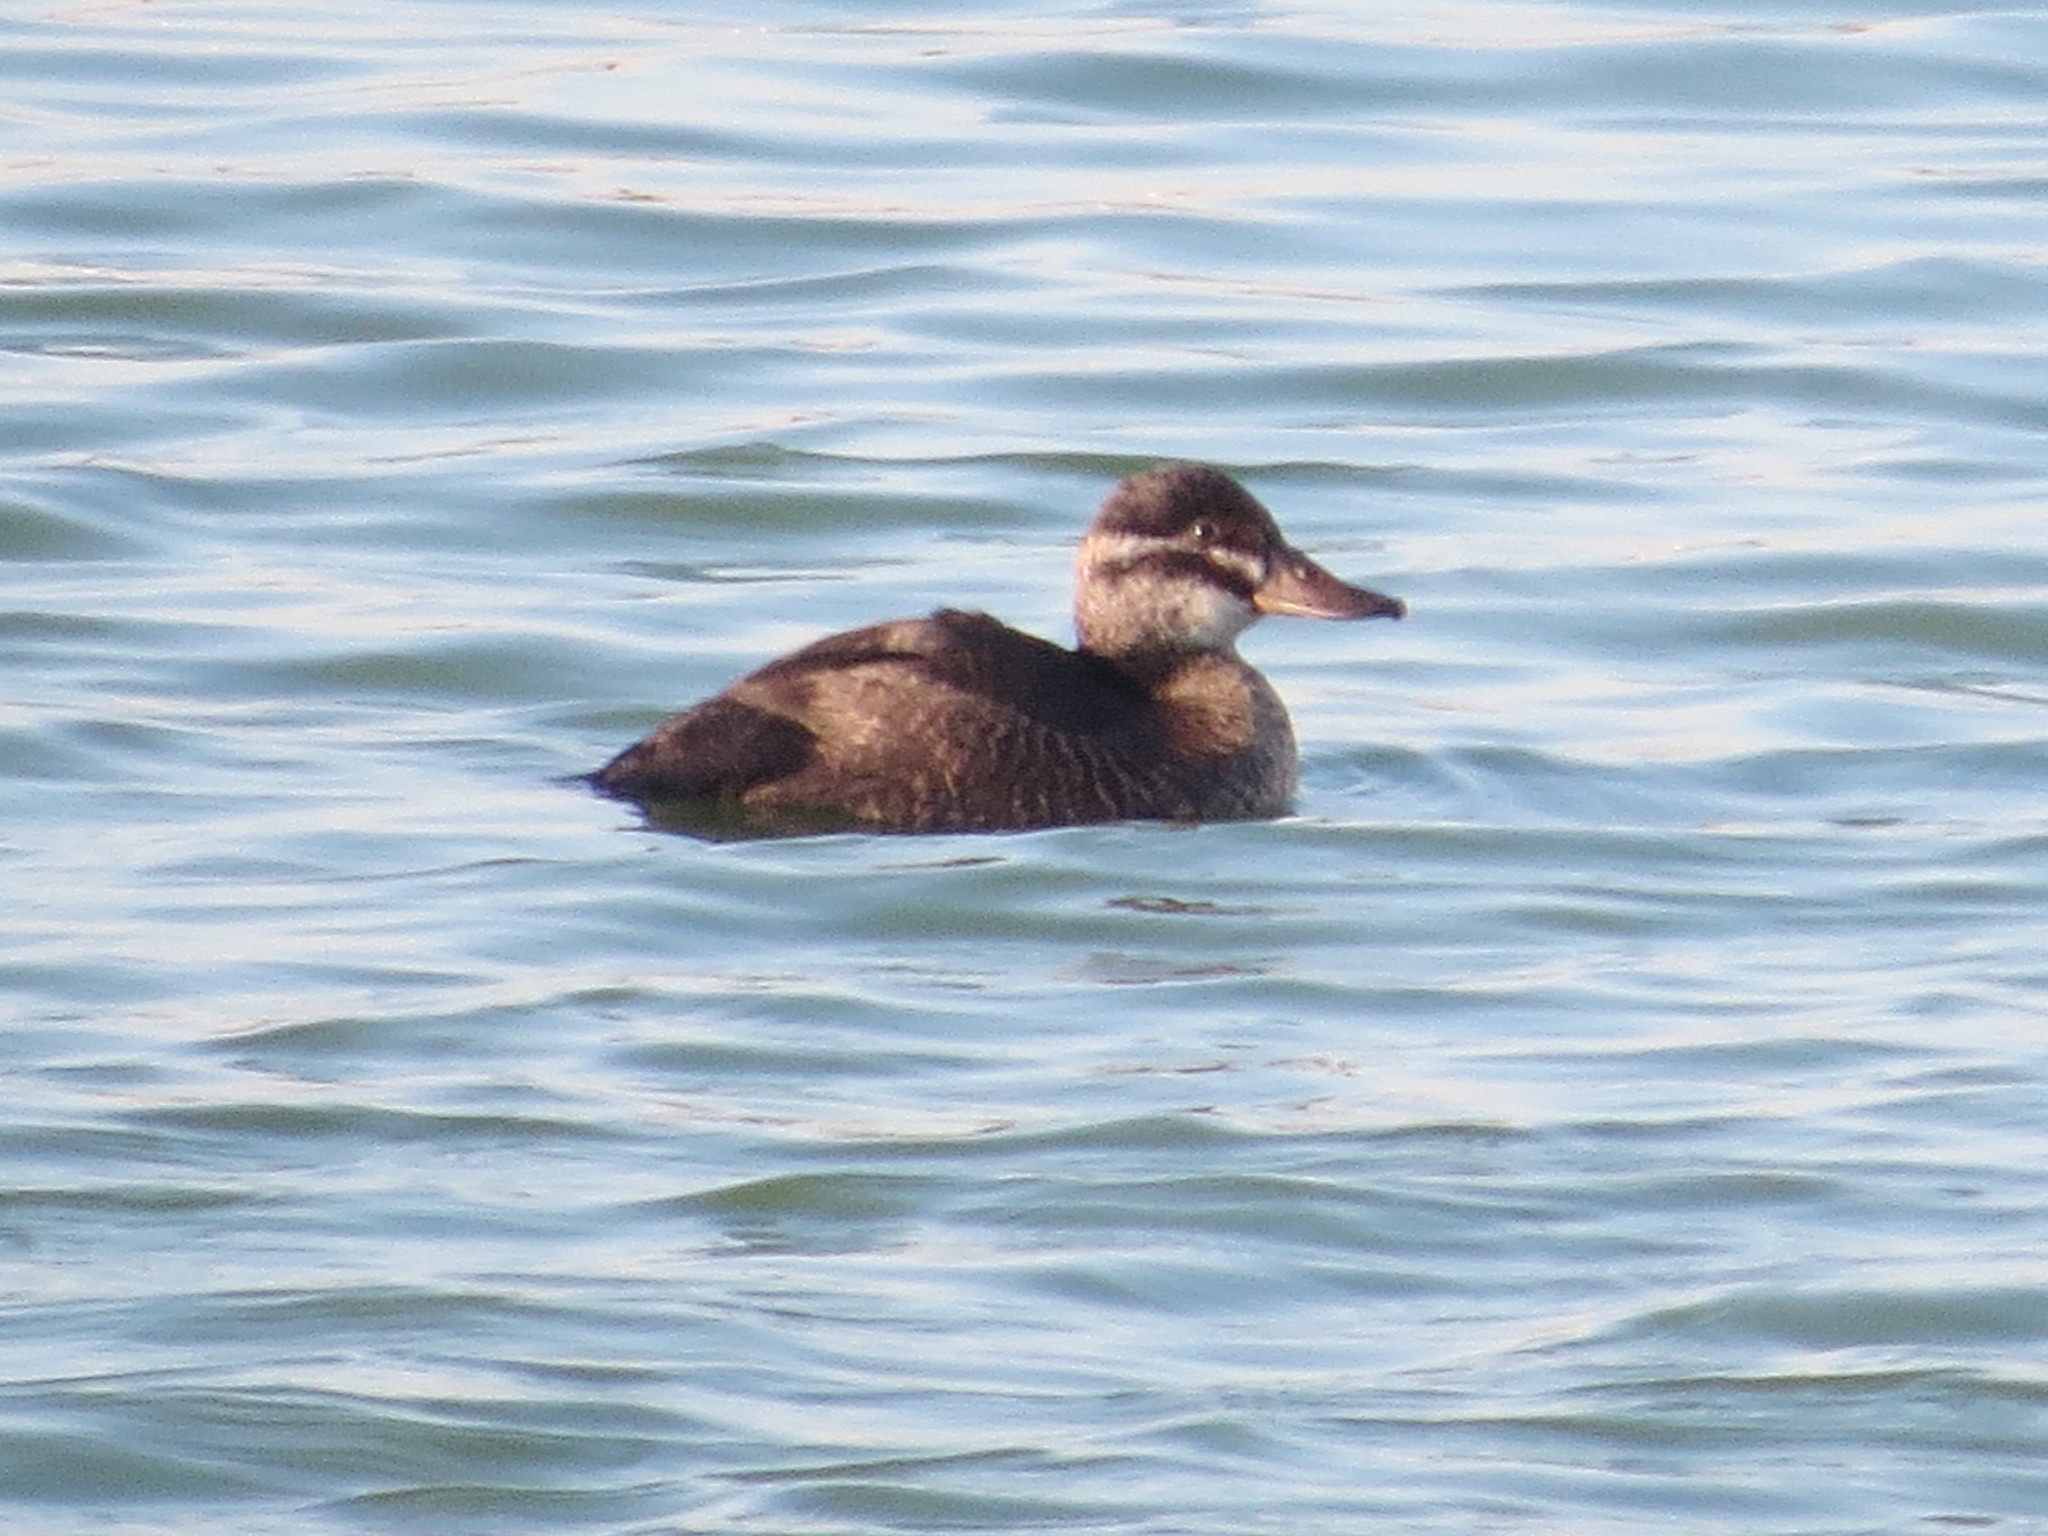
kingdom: Animalia
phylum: Chordata
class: Aves
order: Anseriformes
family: Anatidae
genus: Oxyura
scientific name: Oxyura vittata
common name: Lake duck
